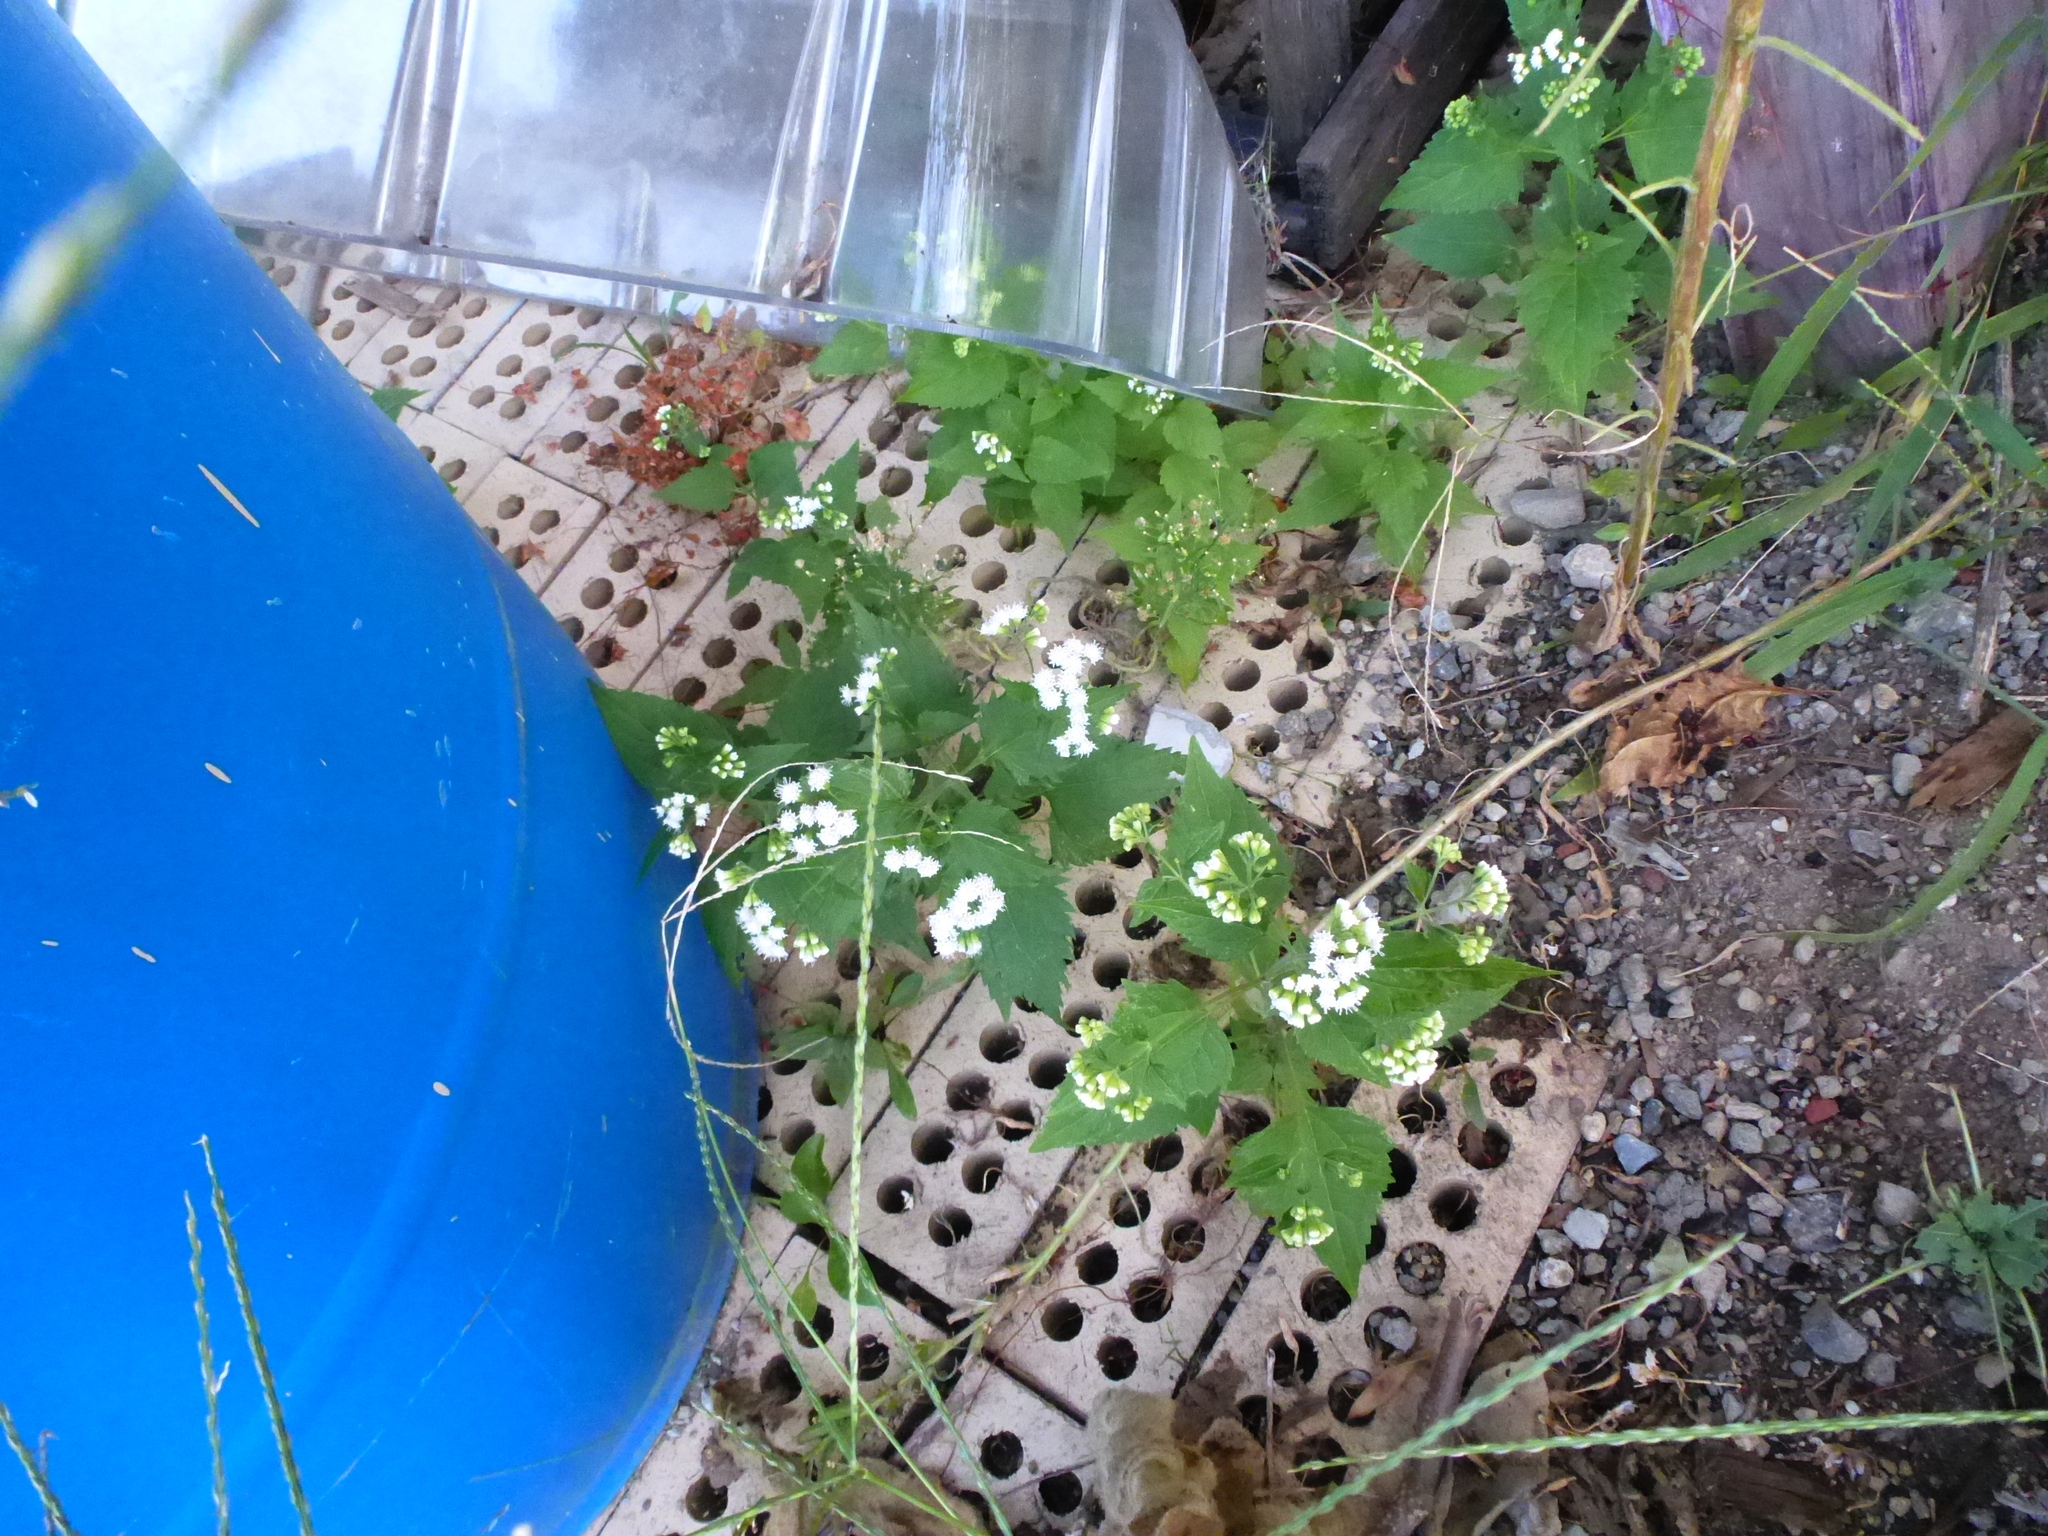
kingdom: Plantae
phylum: Tracheophyta
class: Magnoliopsida
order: Asterales
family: Asteraceae
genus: Ageratina
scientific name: Ageratina altissima
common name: White snakeroot
